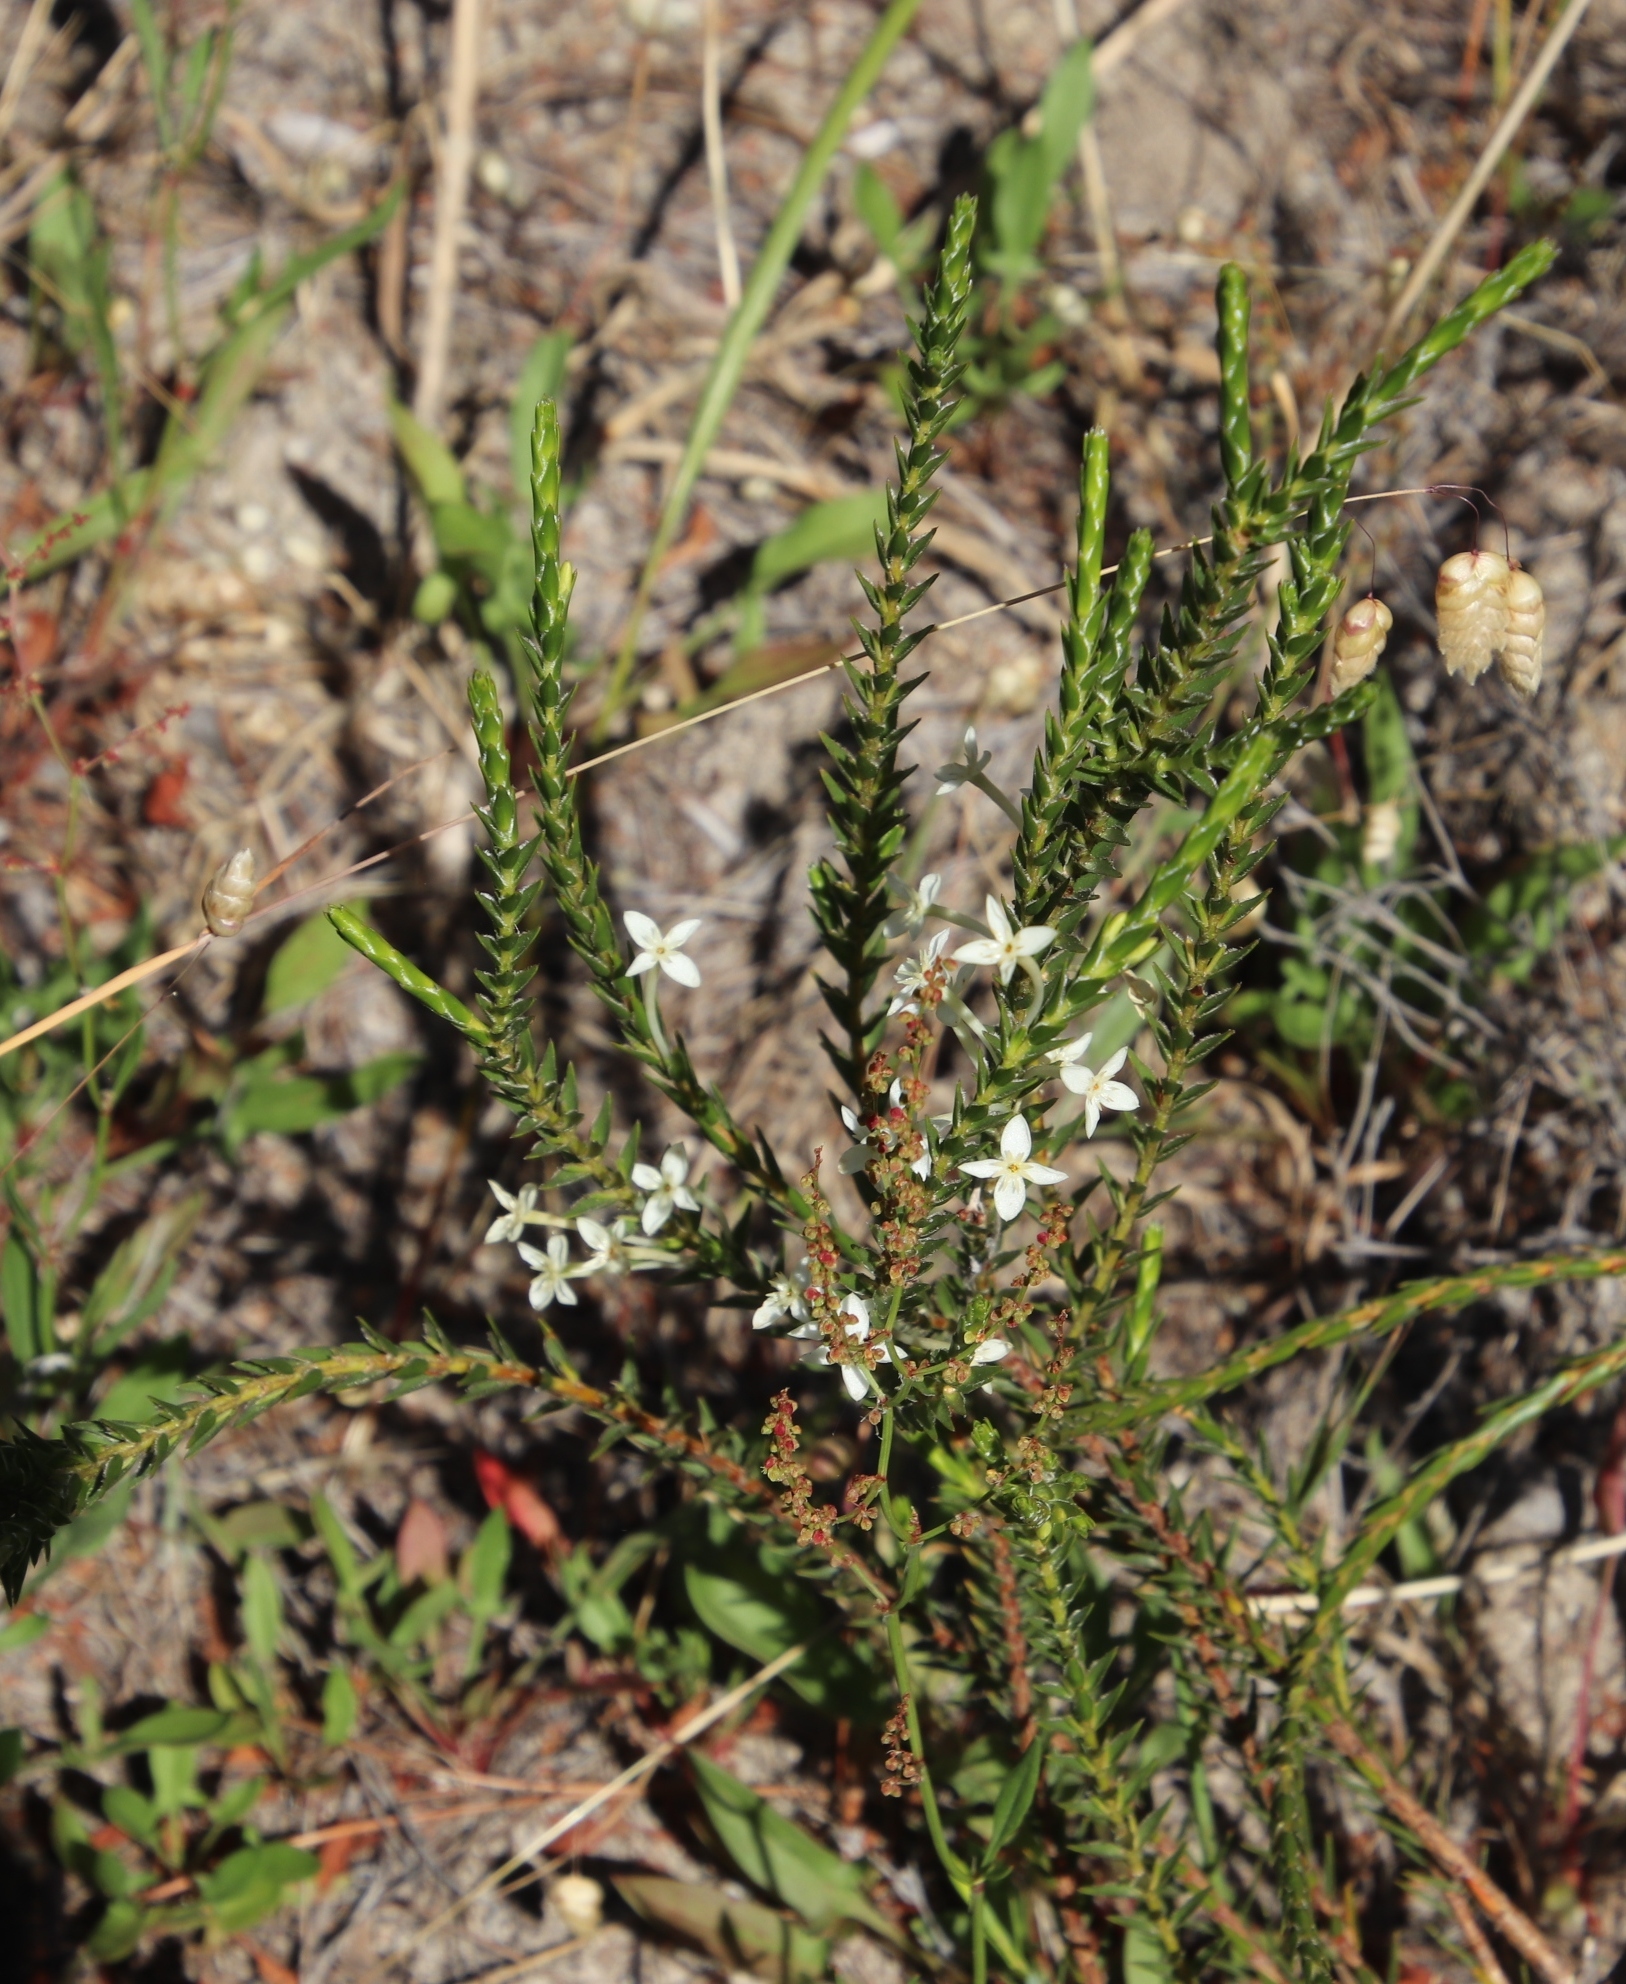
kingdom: Plantae
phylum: Tracheophyta
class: Magnoliopsida
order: Malvales
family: Thymelaeaceae
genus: Struthiola
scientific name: Struthiola ciliata
